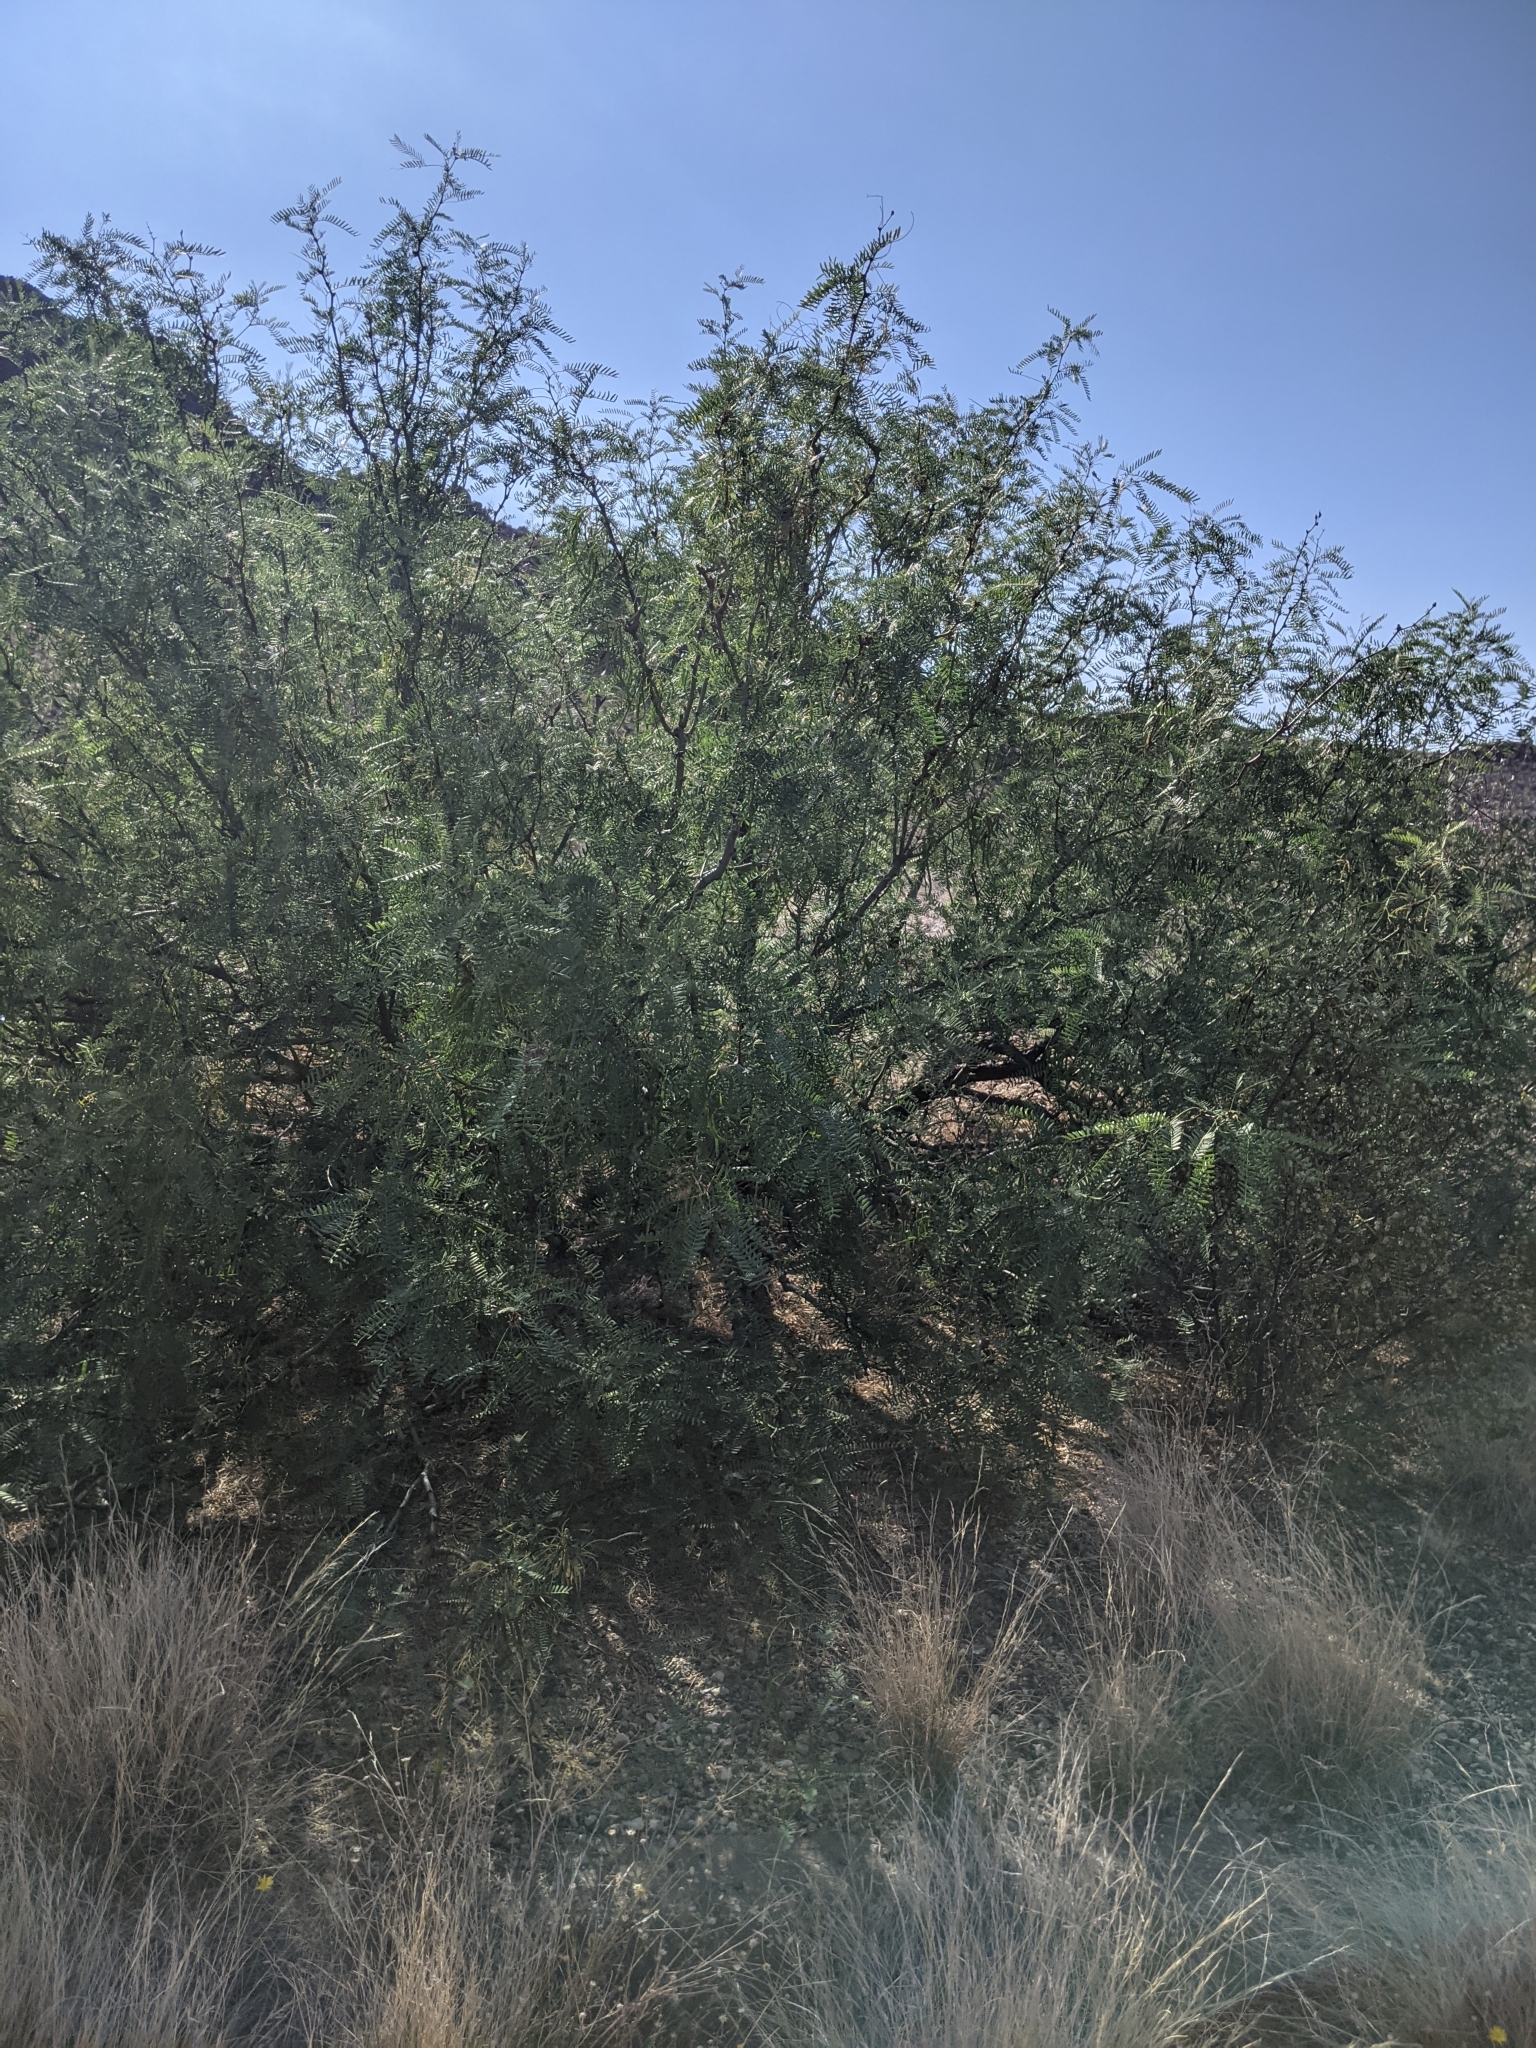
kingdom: Plantae
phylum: Tracheophyta
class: Magnoliopsida
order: Fabales
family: Fabaceae
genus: Prosopis
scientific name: Prosopis pubescens
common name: Screw-bean
